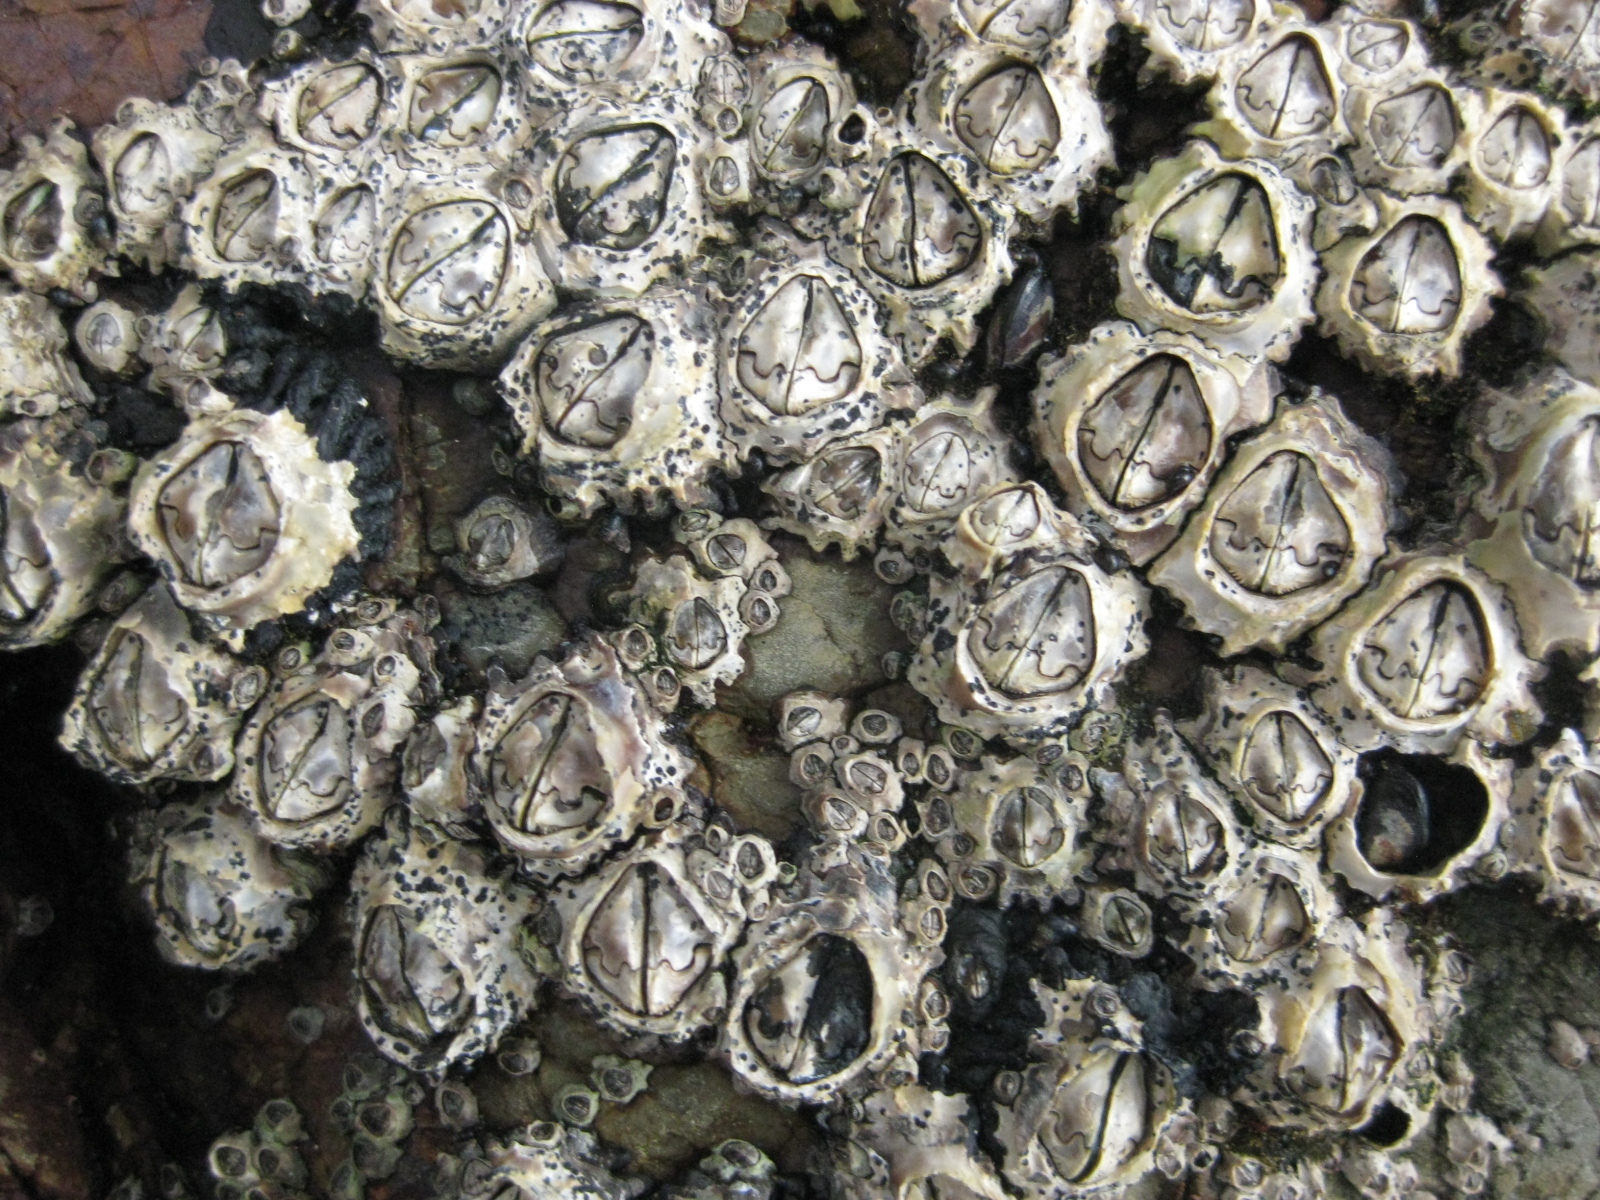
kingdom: Animalia
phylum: Arthropoda
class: Maxillopoda
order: Sessilia
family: Chthamalidae
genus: Chamaesipho
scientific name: Chamaesipho brunnea
